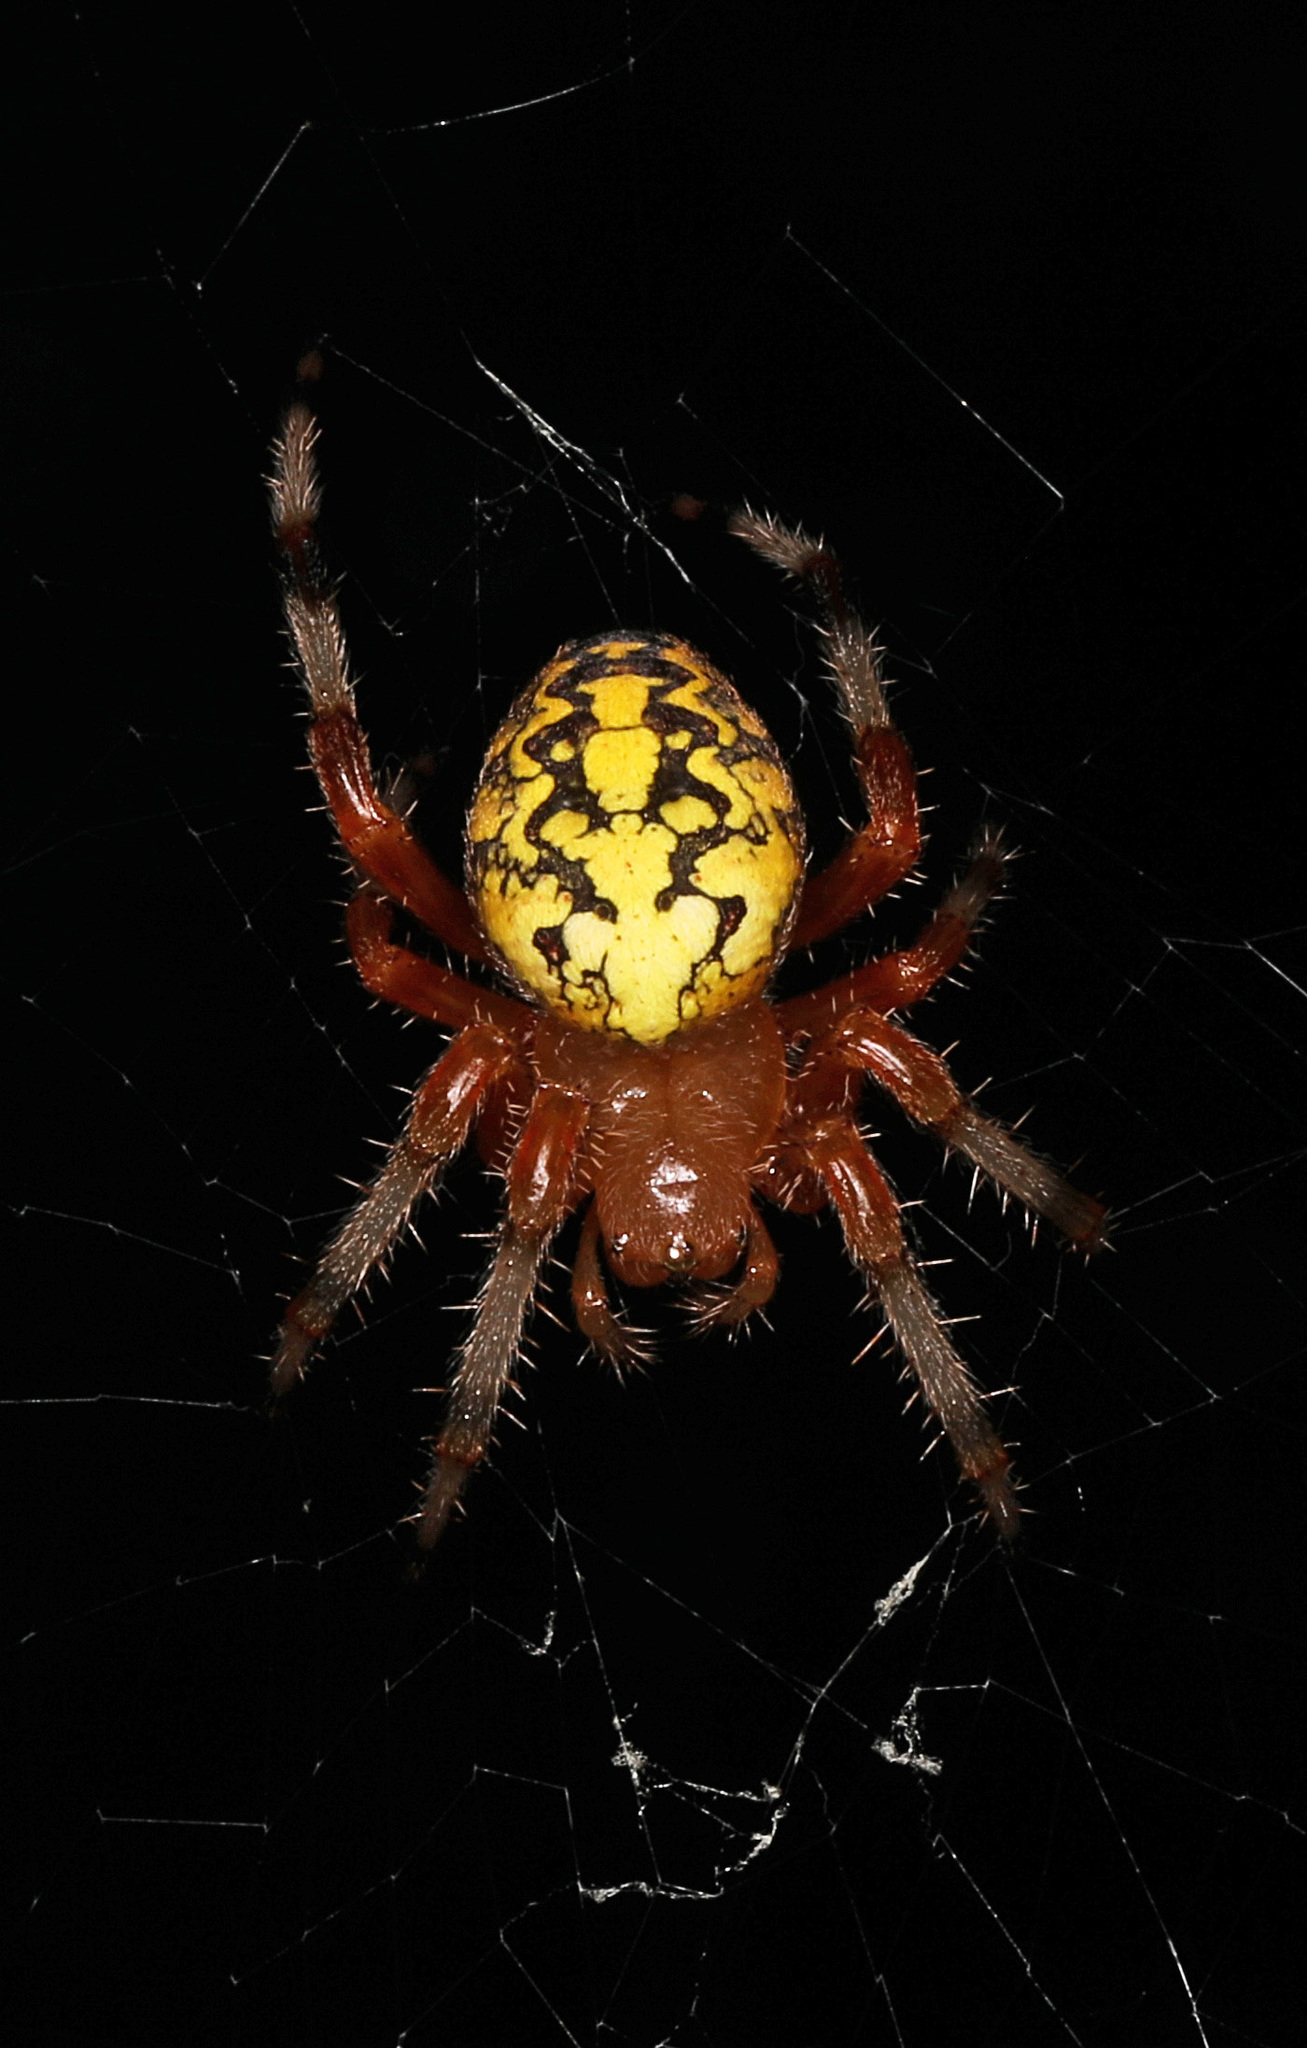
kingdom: Animalia
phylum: Arthropoda
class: Arachnida
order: Araneae
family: Araneidae
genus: Araneus
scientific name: Araneus marmoreus
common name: Marbled orbweaver
